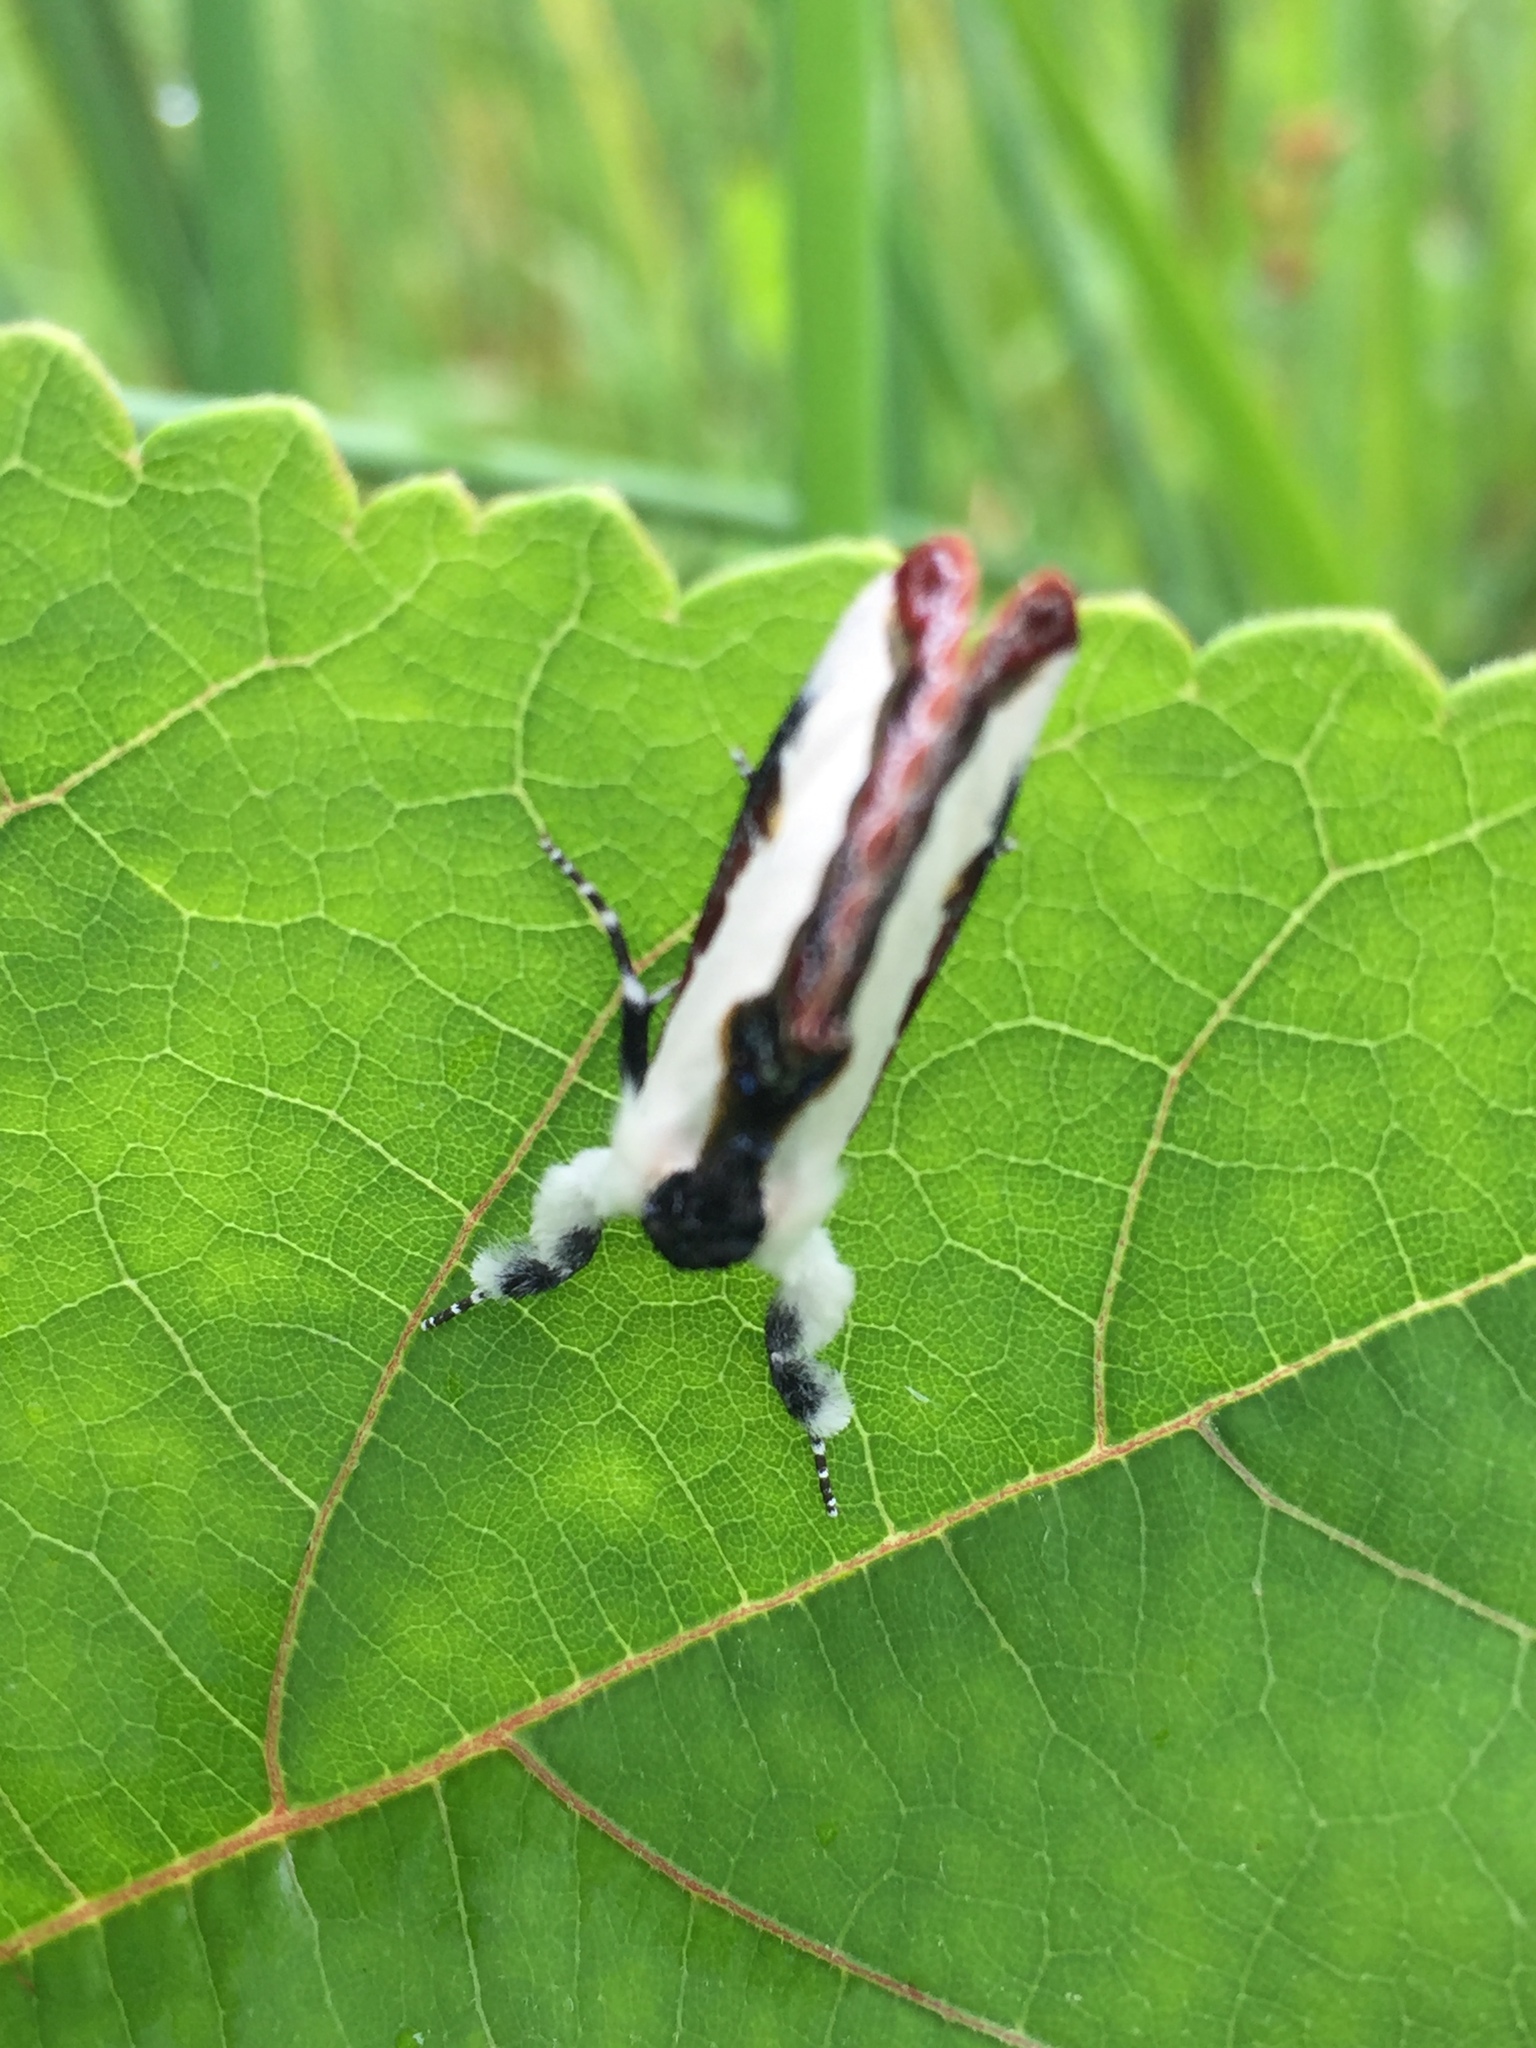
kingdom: Animalia
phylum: Arthropoda
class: Insecta
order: Lepidoptera
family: Noctuidae
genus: Eudryas
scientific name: Eudryas unio
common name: Pearly wood-nymph
